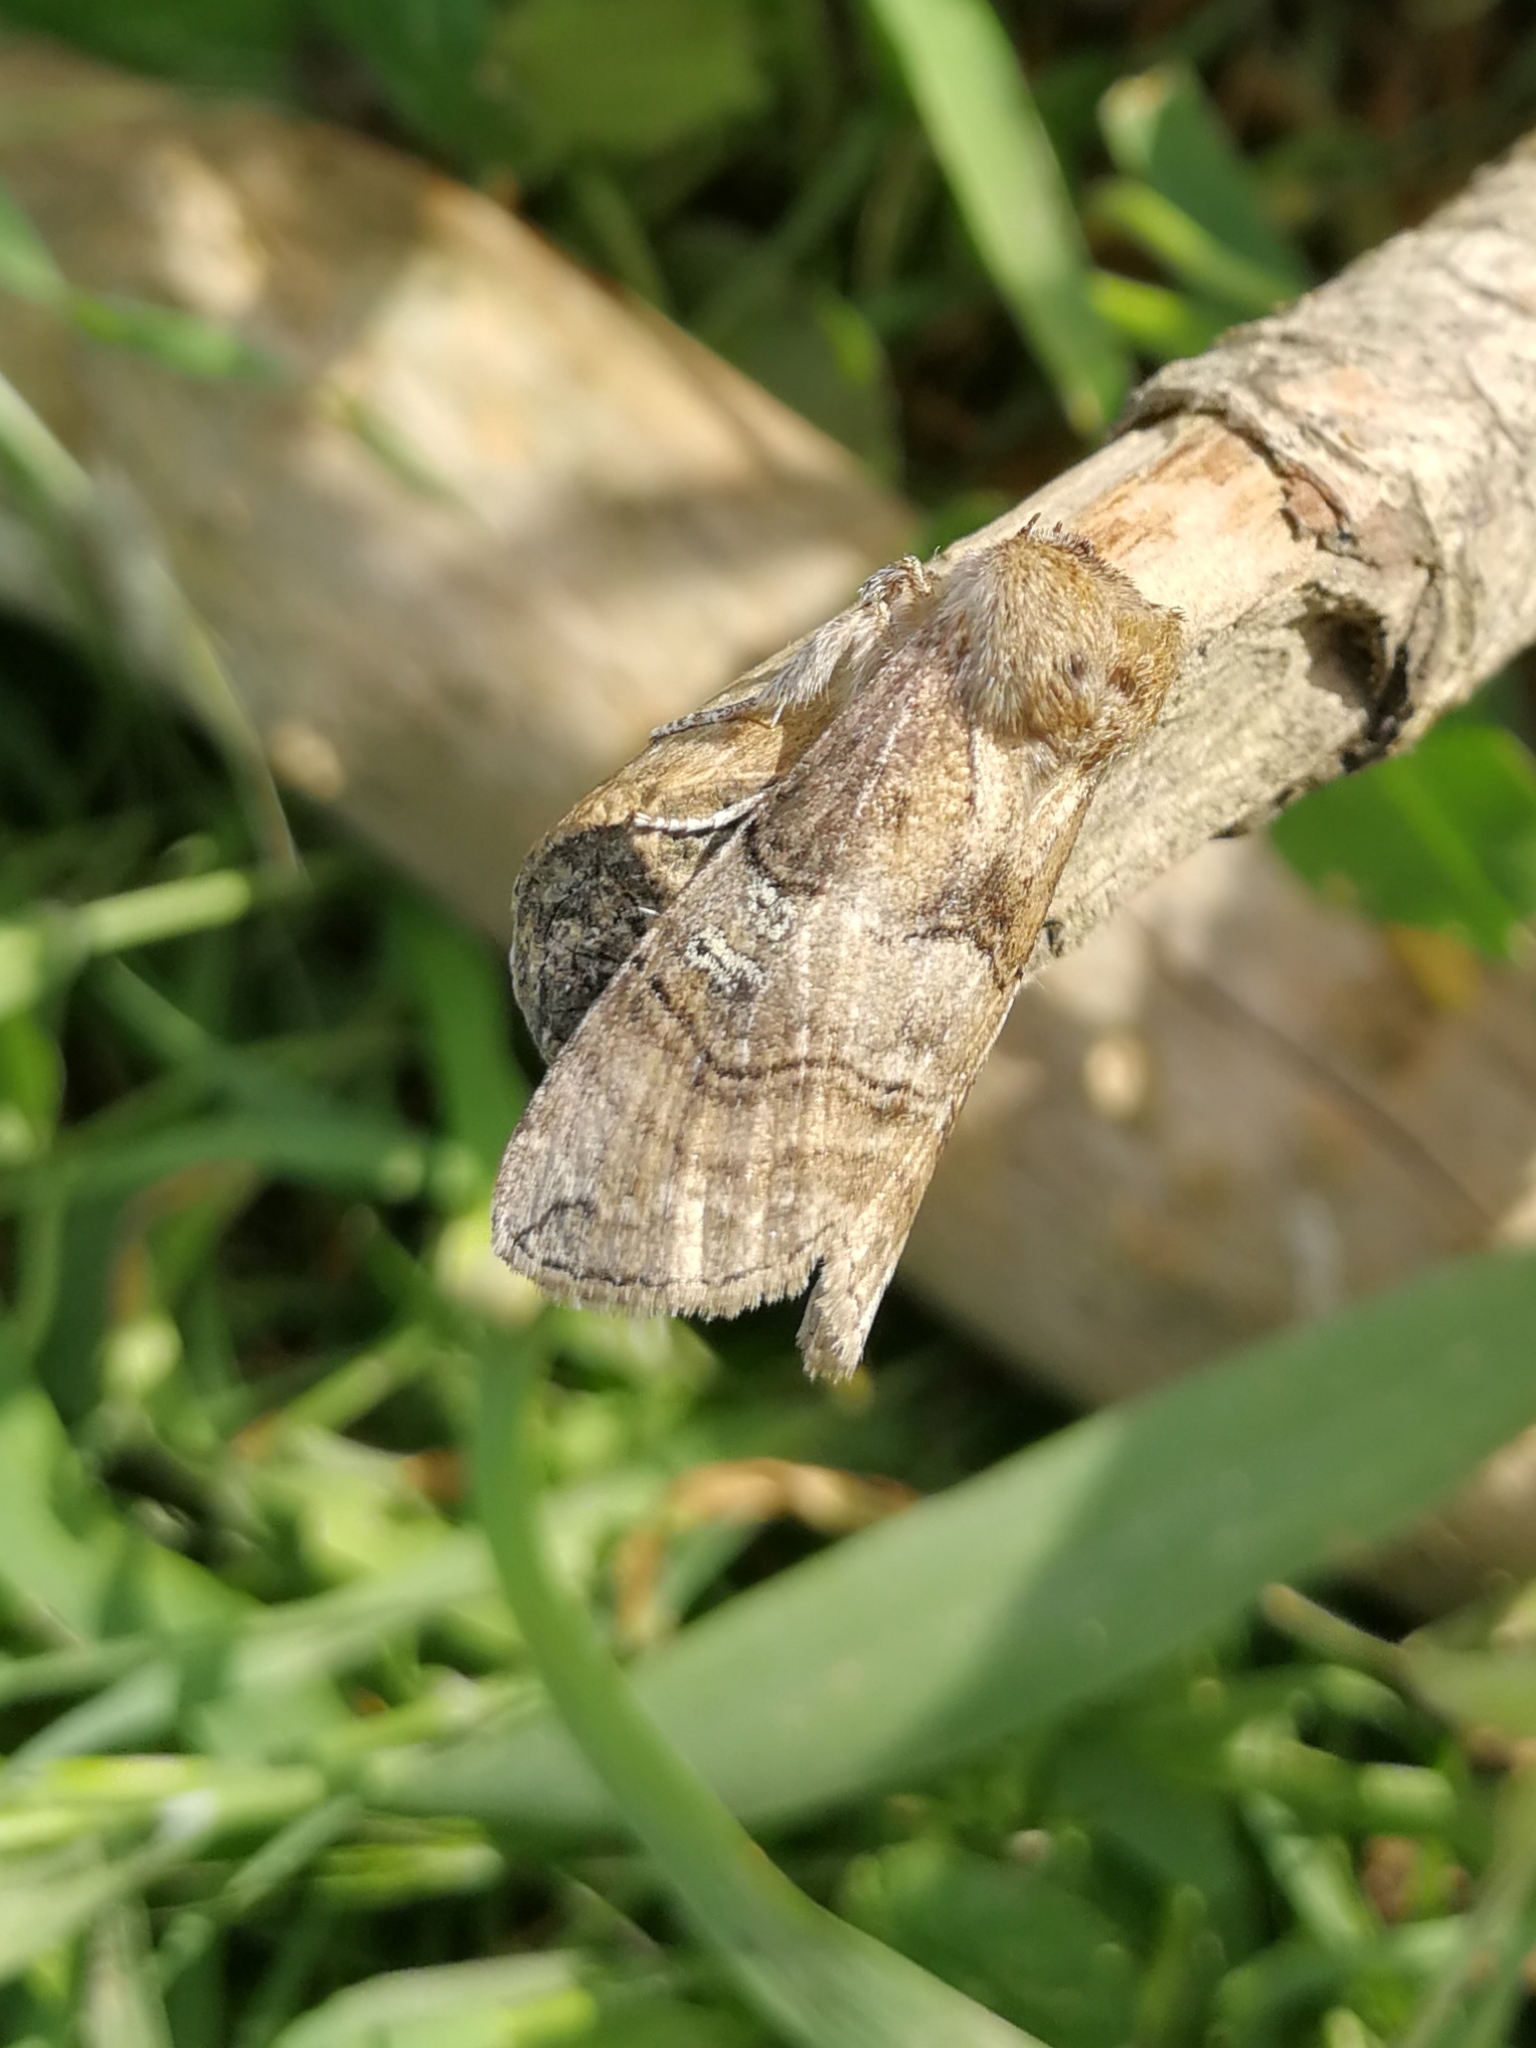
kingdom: Animalia
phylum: Arthropoda
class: Insecta
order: Lepidoptera
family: Drepanidae
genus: Tethea
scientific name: Tethea ocularis
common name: Figure of eighty
